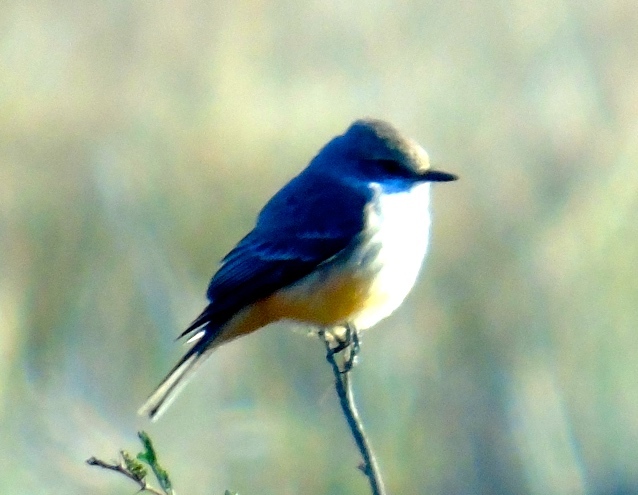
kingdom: Animalia
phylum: Chordata
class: Aves
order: Passeriformes
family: Tyrannidae
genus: Pyrocephalus
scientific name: Pyrocephalus rubinus
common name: Vermilion flycatcher
